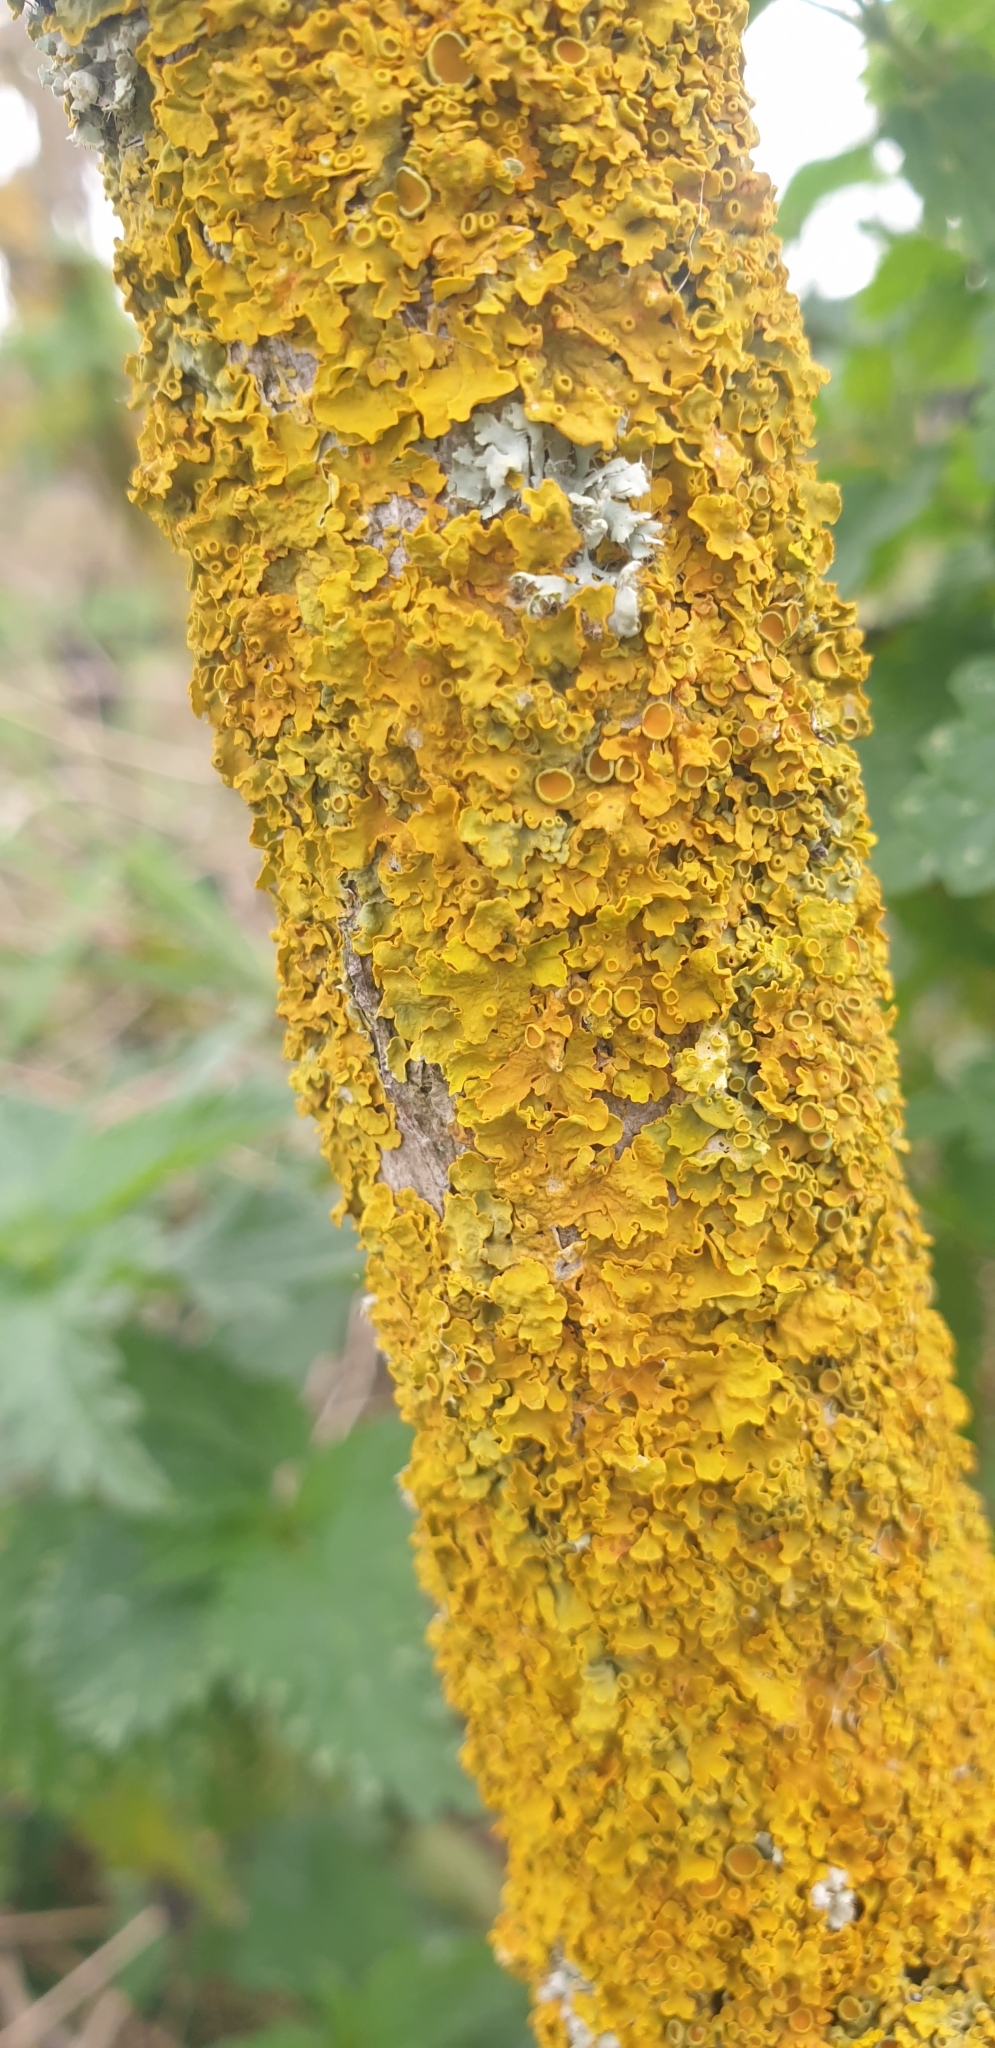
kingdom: Fungi
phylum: Ascomycota
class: Lecanoromycetes
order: Teloschistales
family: Teloschistaceae
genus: Xanthoria
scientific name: Xanthoria parietina
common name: Common orange lichen
